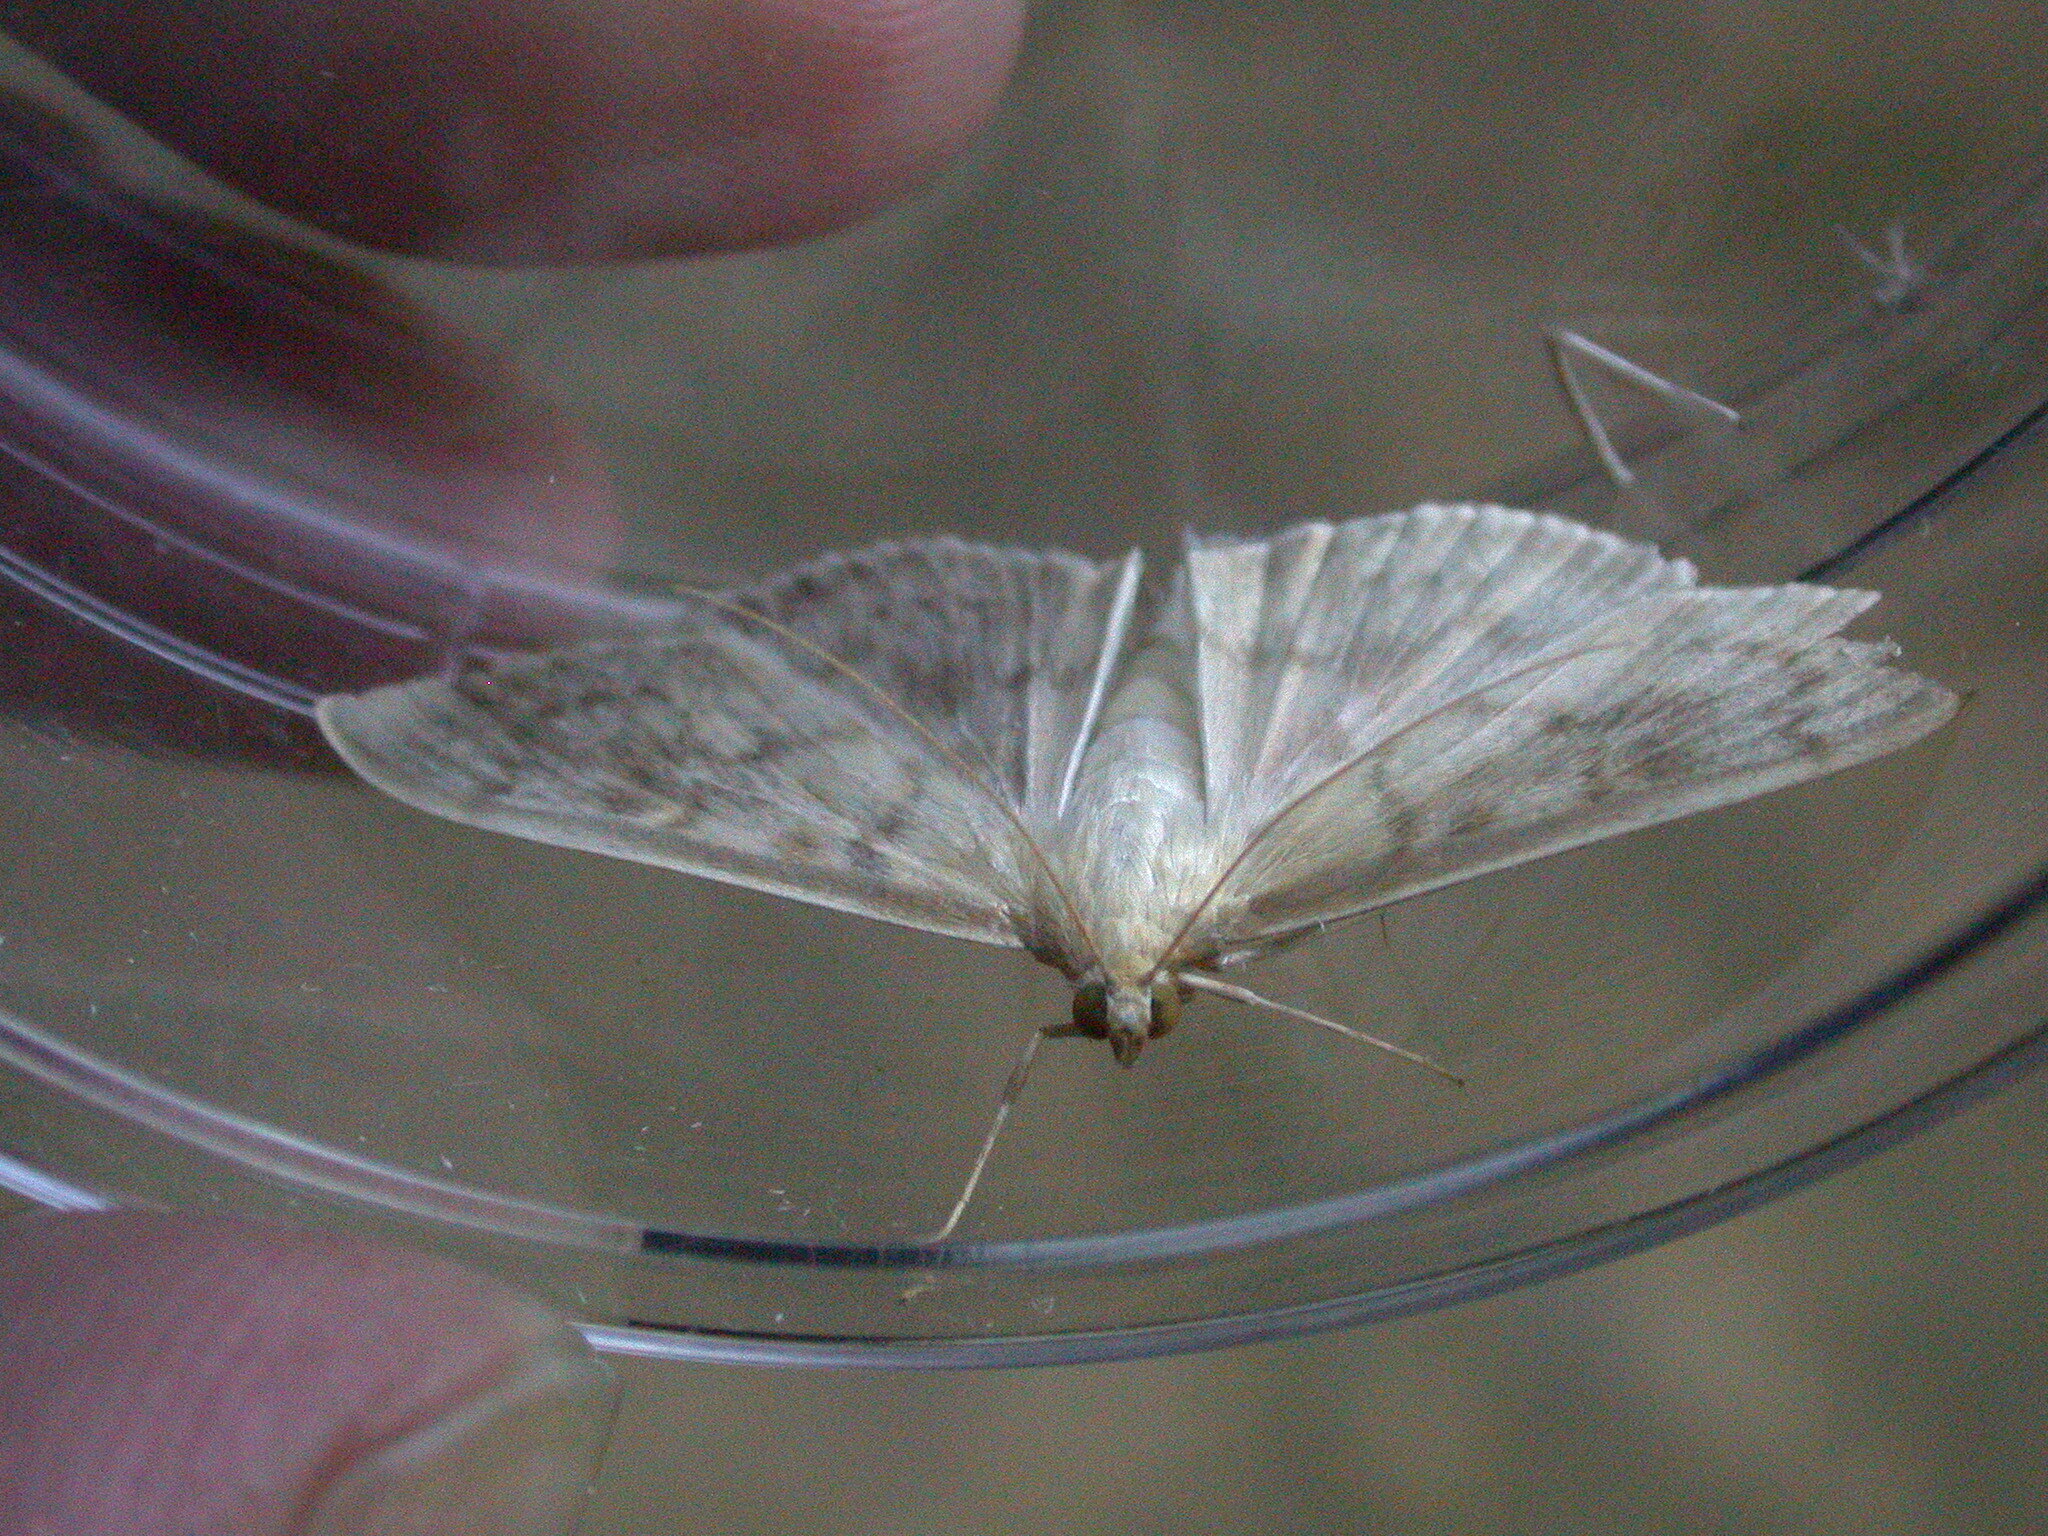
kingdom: Animalia
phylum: Arthropoda
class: Insecta
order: Lepidoptera
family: Crambidae
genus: Patania
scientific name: Patania ruralis
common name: Mother of pearl
